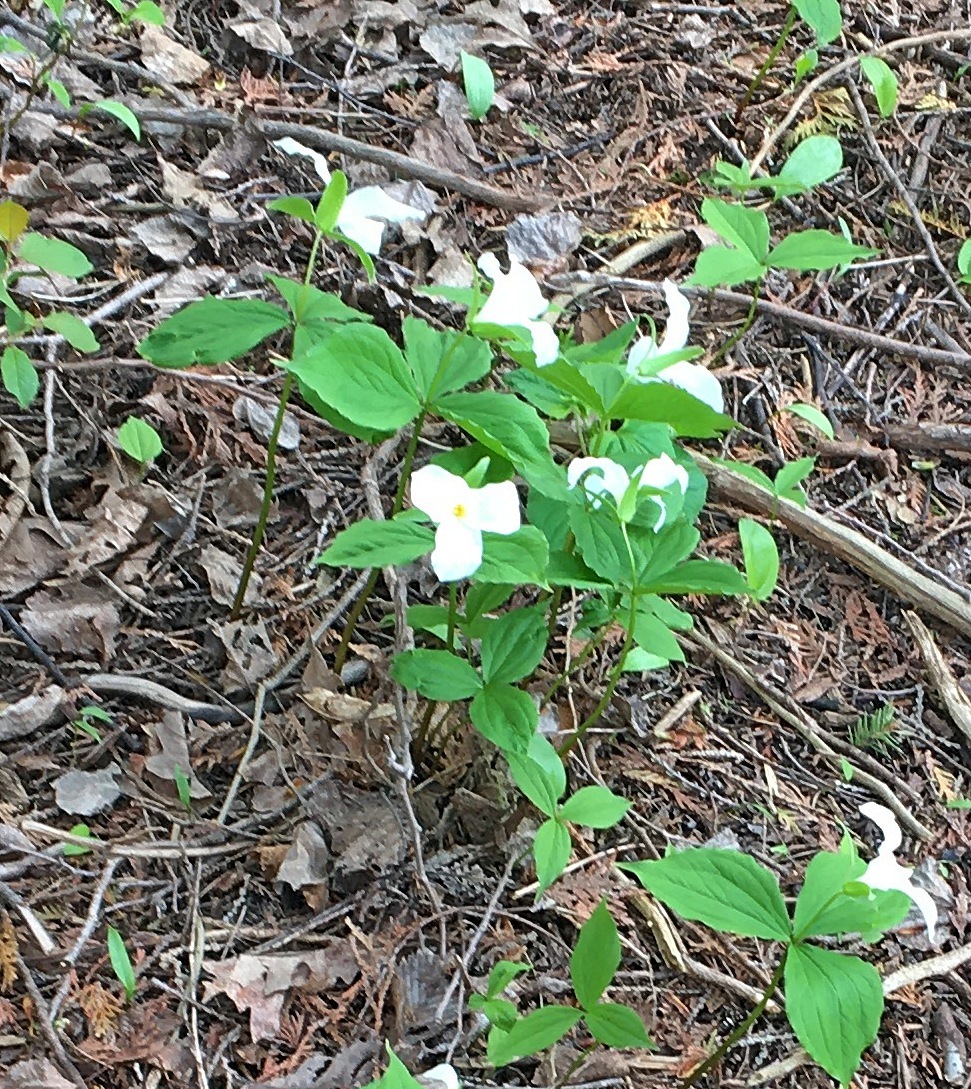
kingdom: Plantae
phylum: Tracheophyta
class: Liliopsida
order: Liliales
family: Melanthiaceae
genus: Trillium
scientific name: Trillium grandiflorum
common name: Great white trillium
